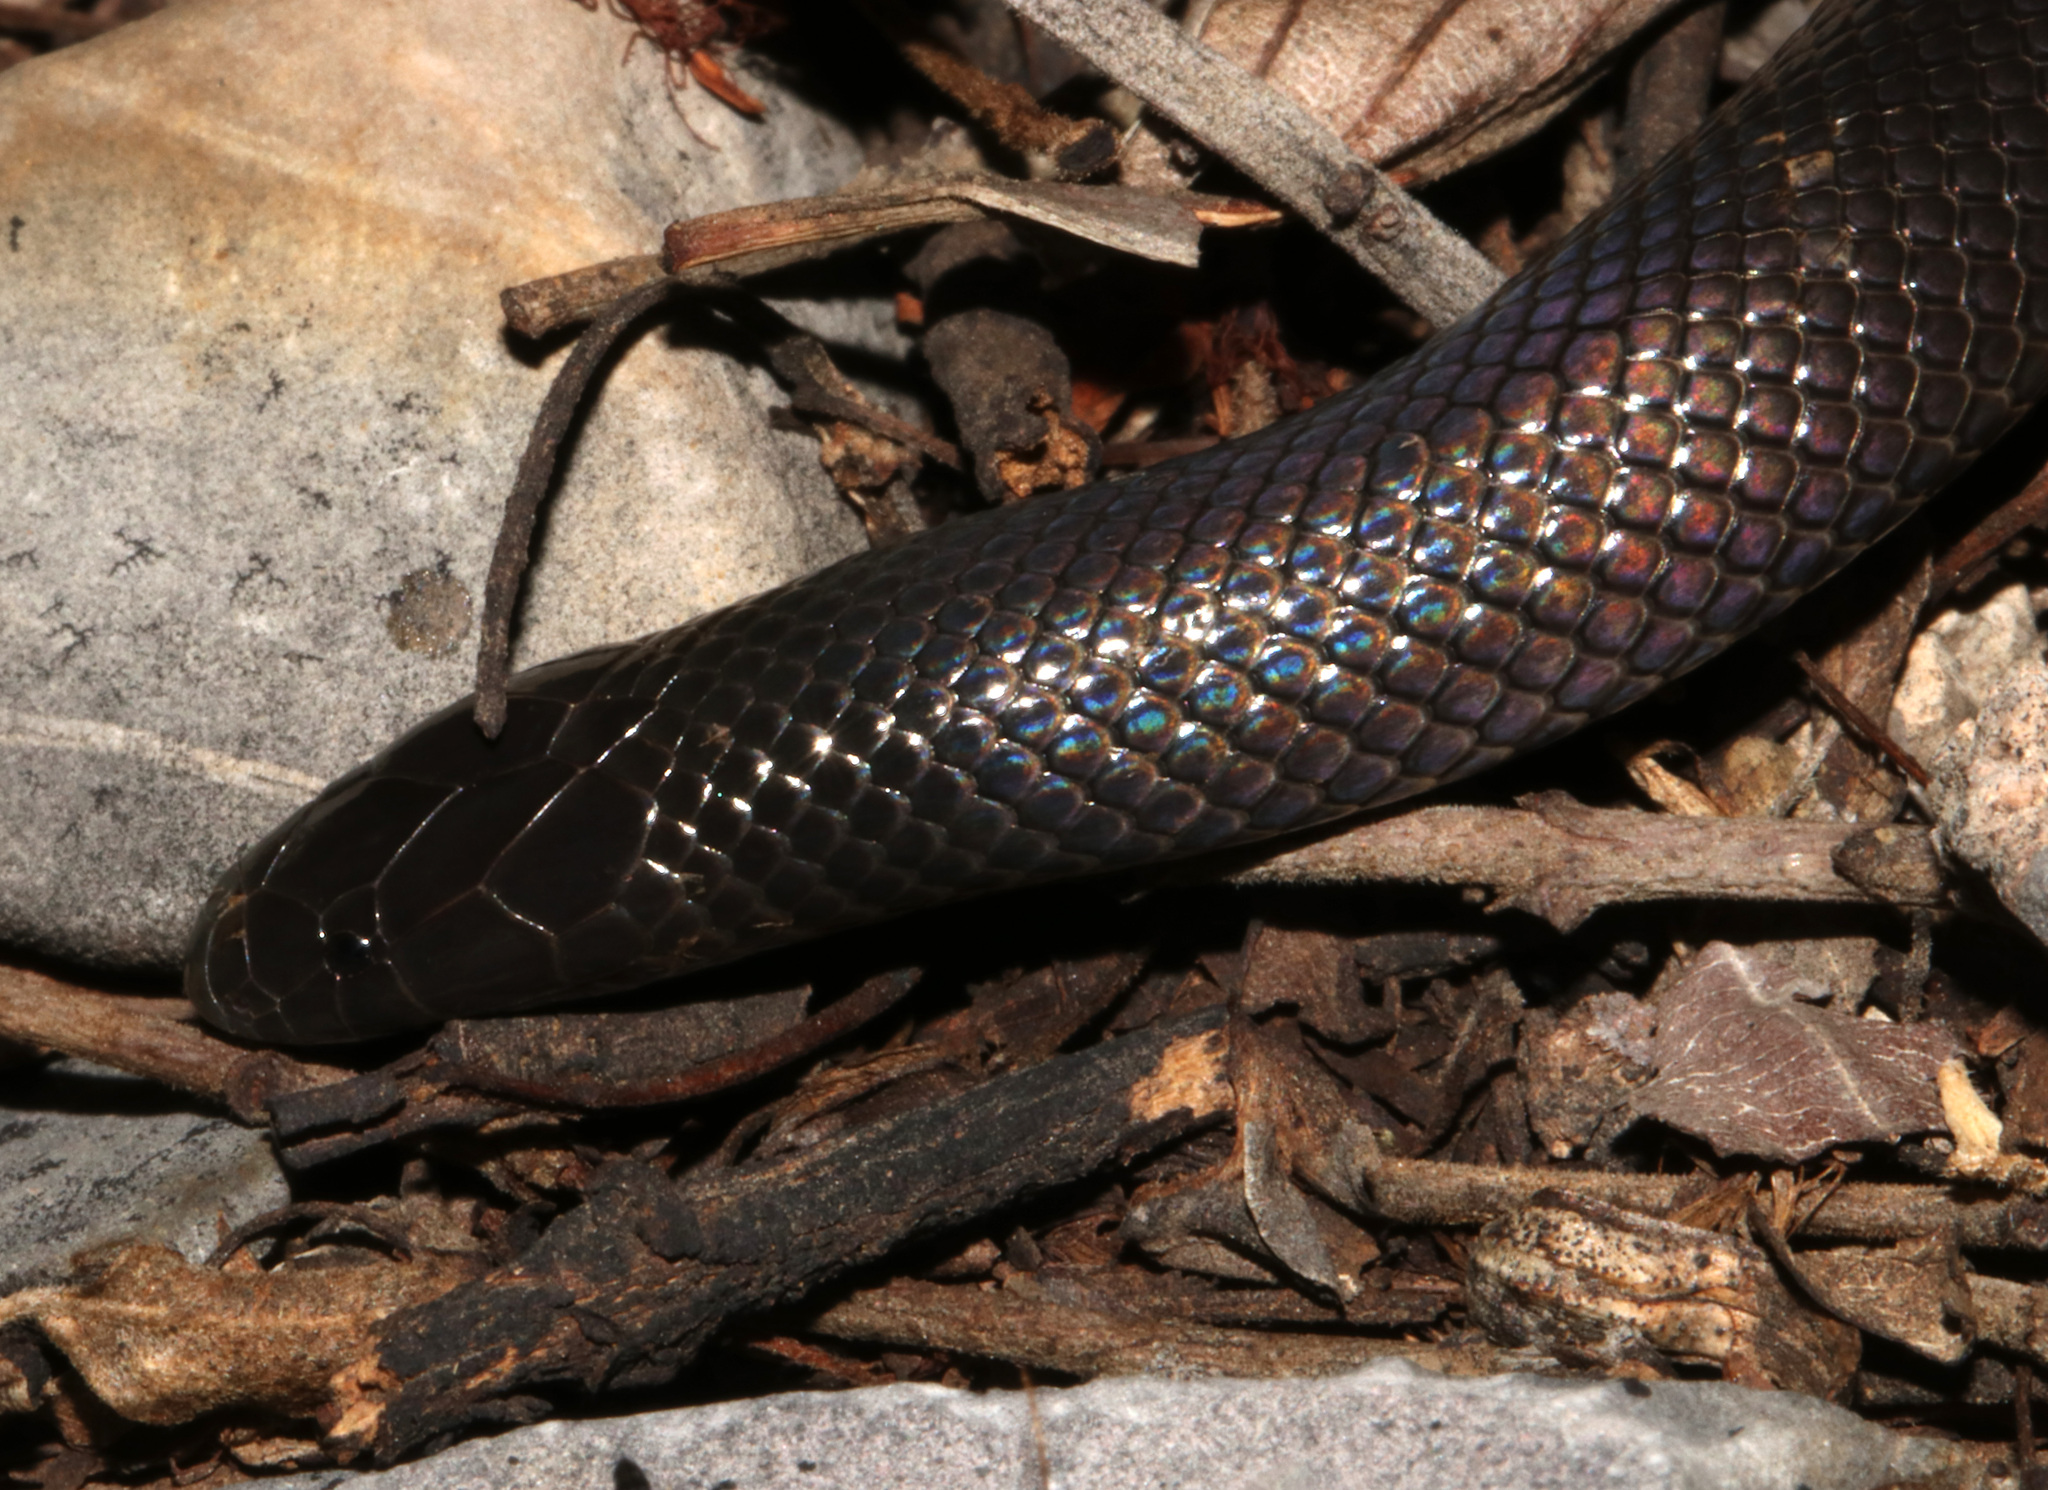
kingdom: Animalia
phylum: Chordata
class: Squamata
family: Atractaspididae
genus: Amblyodipsas
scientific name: Amblyodipsas polylepis
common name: Common purple-glossed snake
